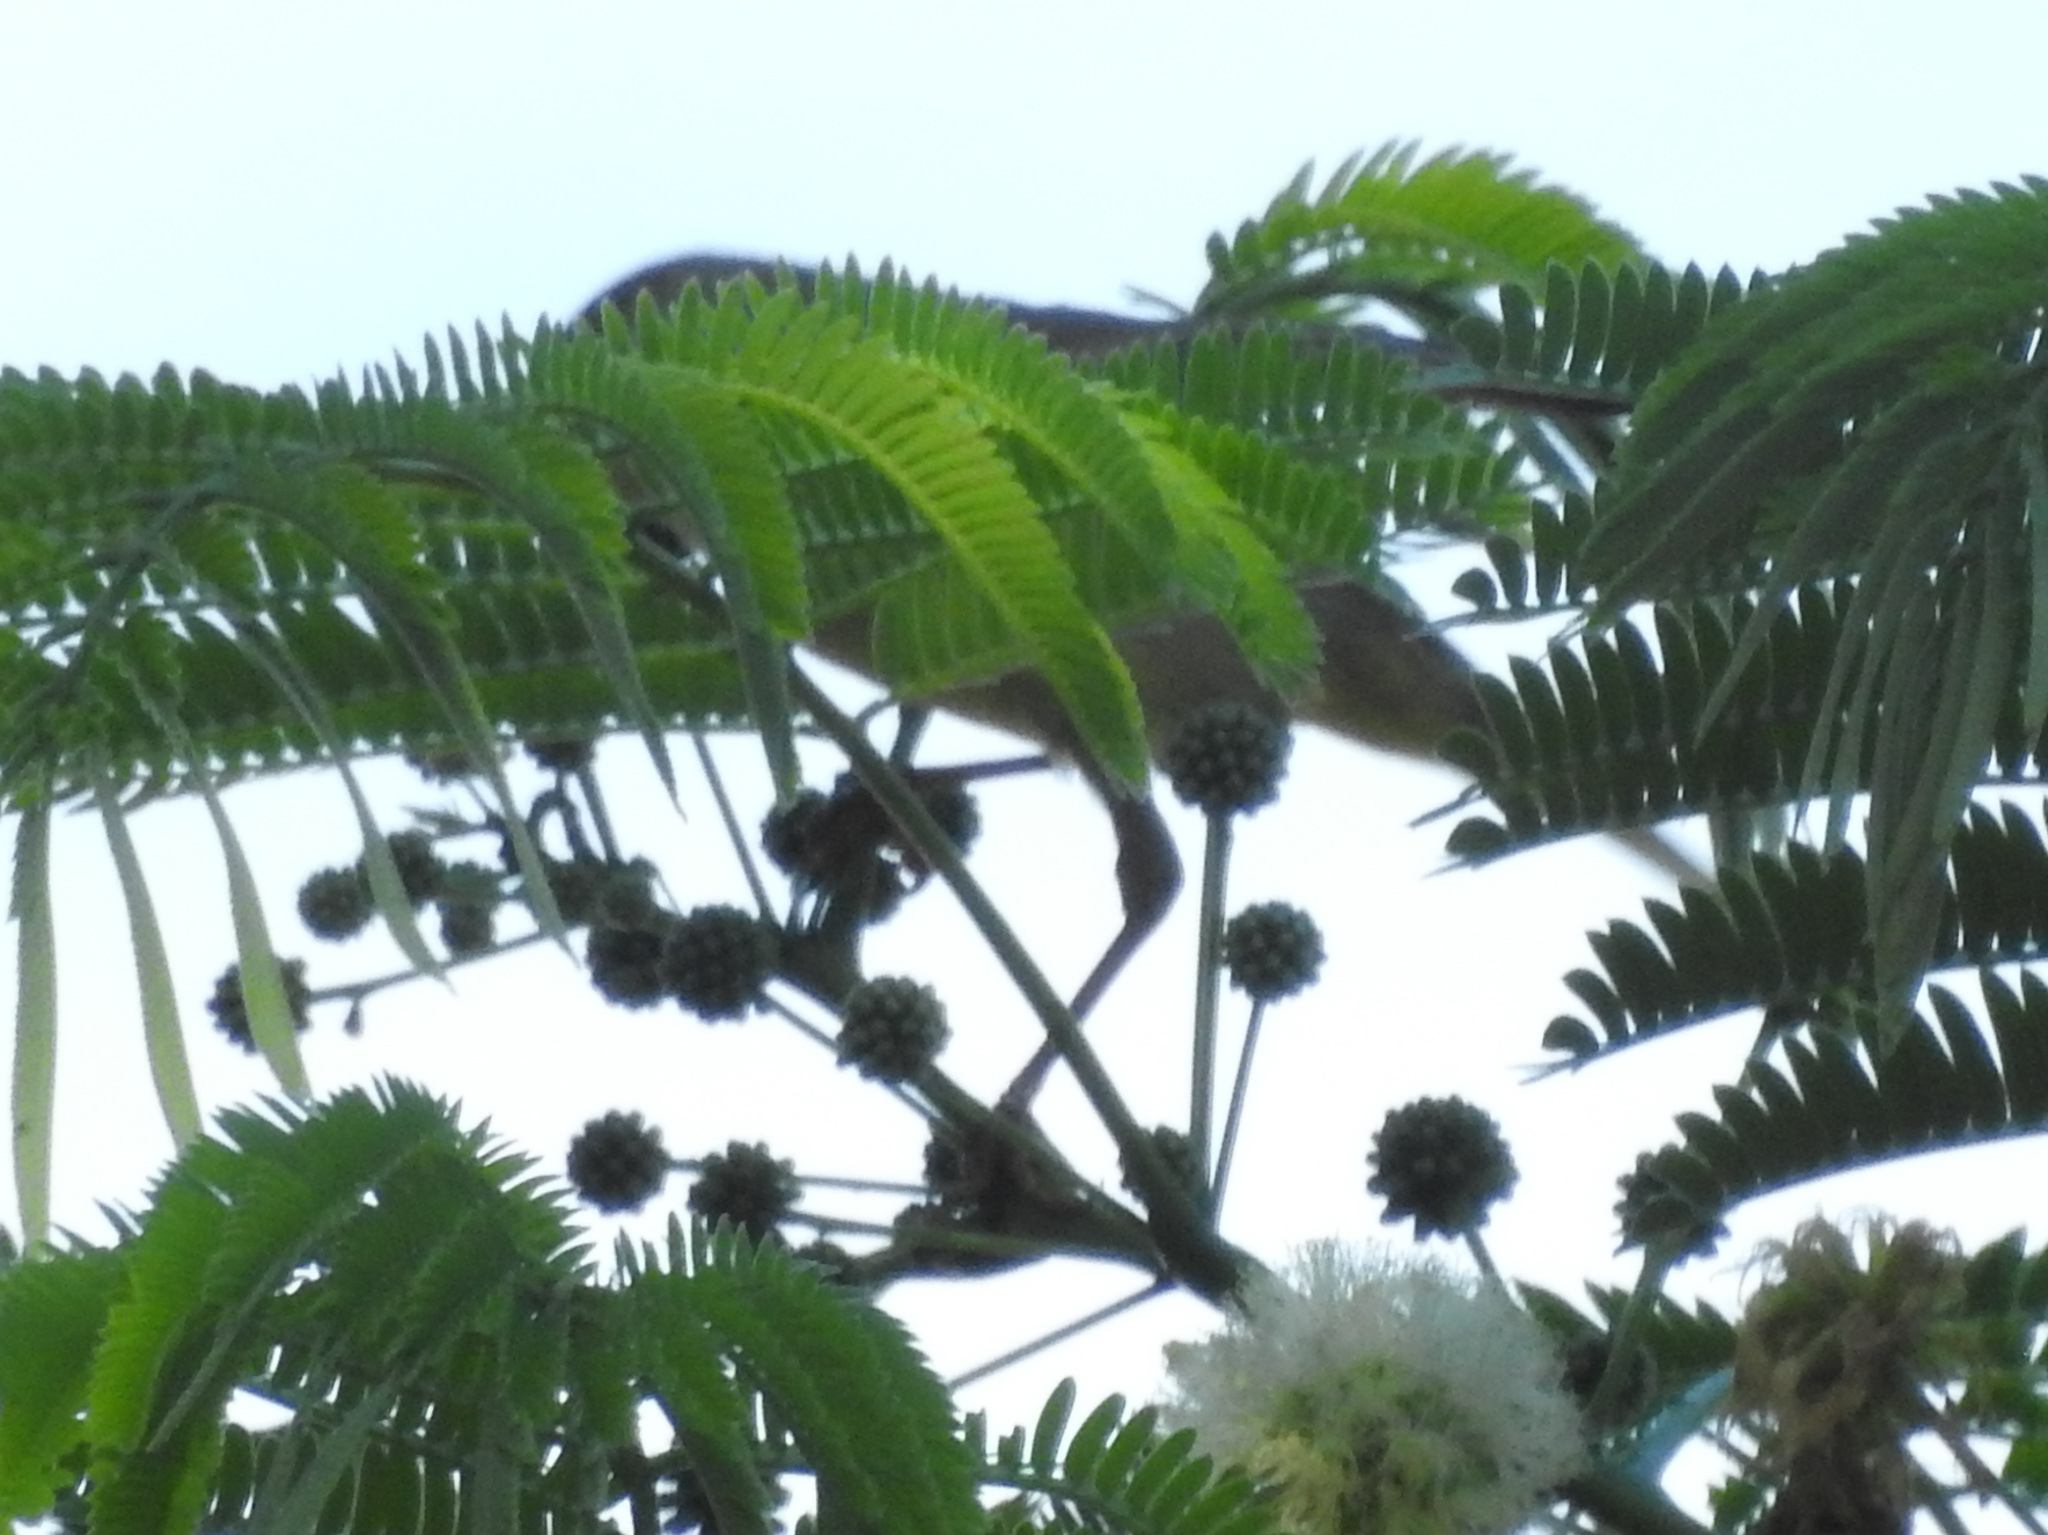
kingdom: Animalia
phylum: Chordata
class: Aves
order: Passeriformes
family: Parulidae
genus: Setophaga
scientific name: Setophaga petechia
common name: Yellow warbler
